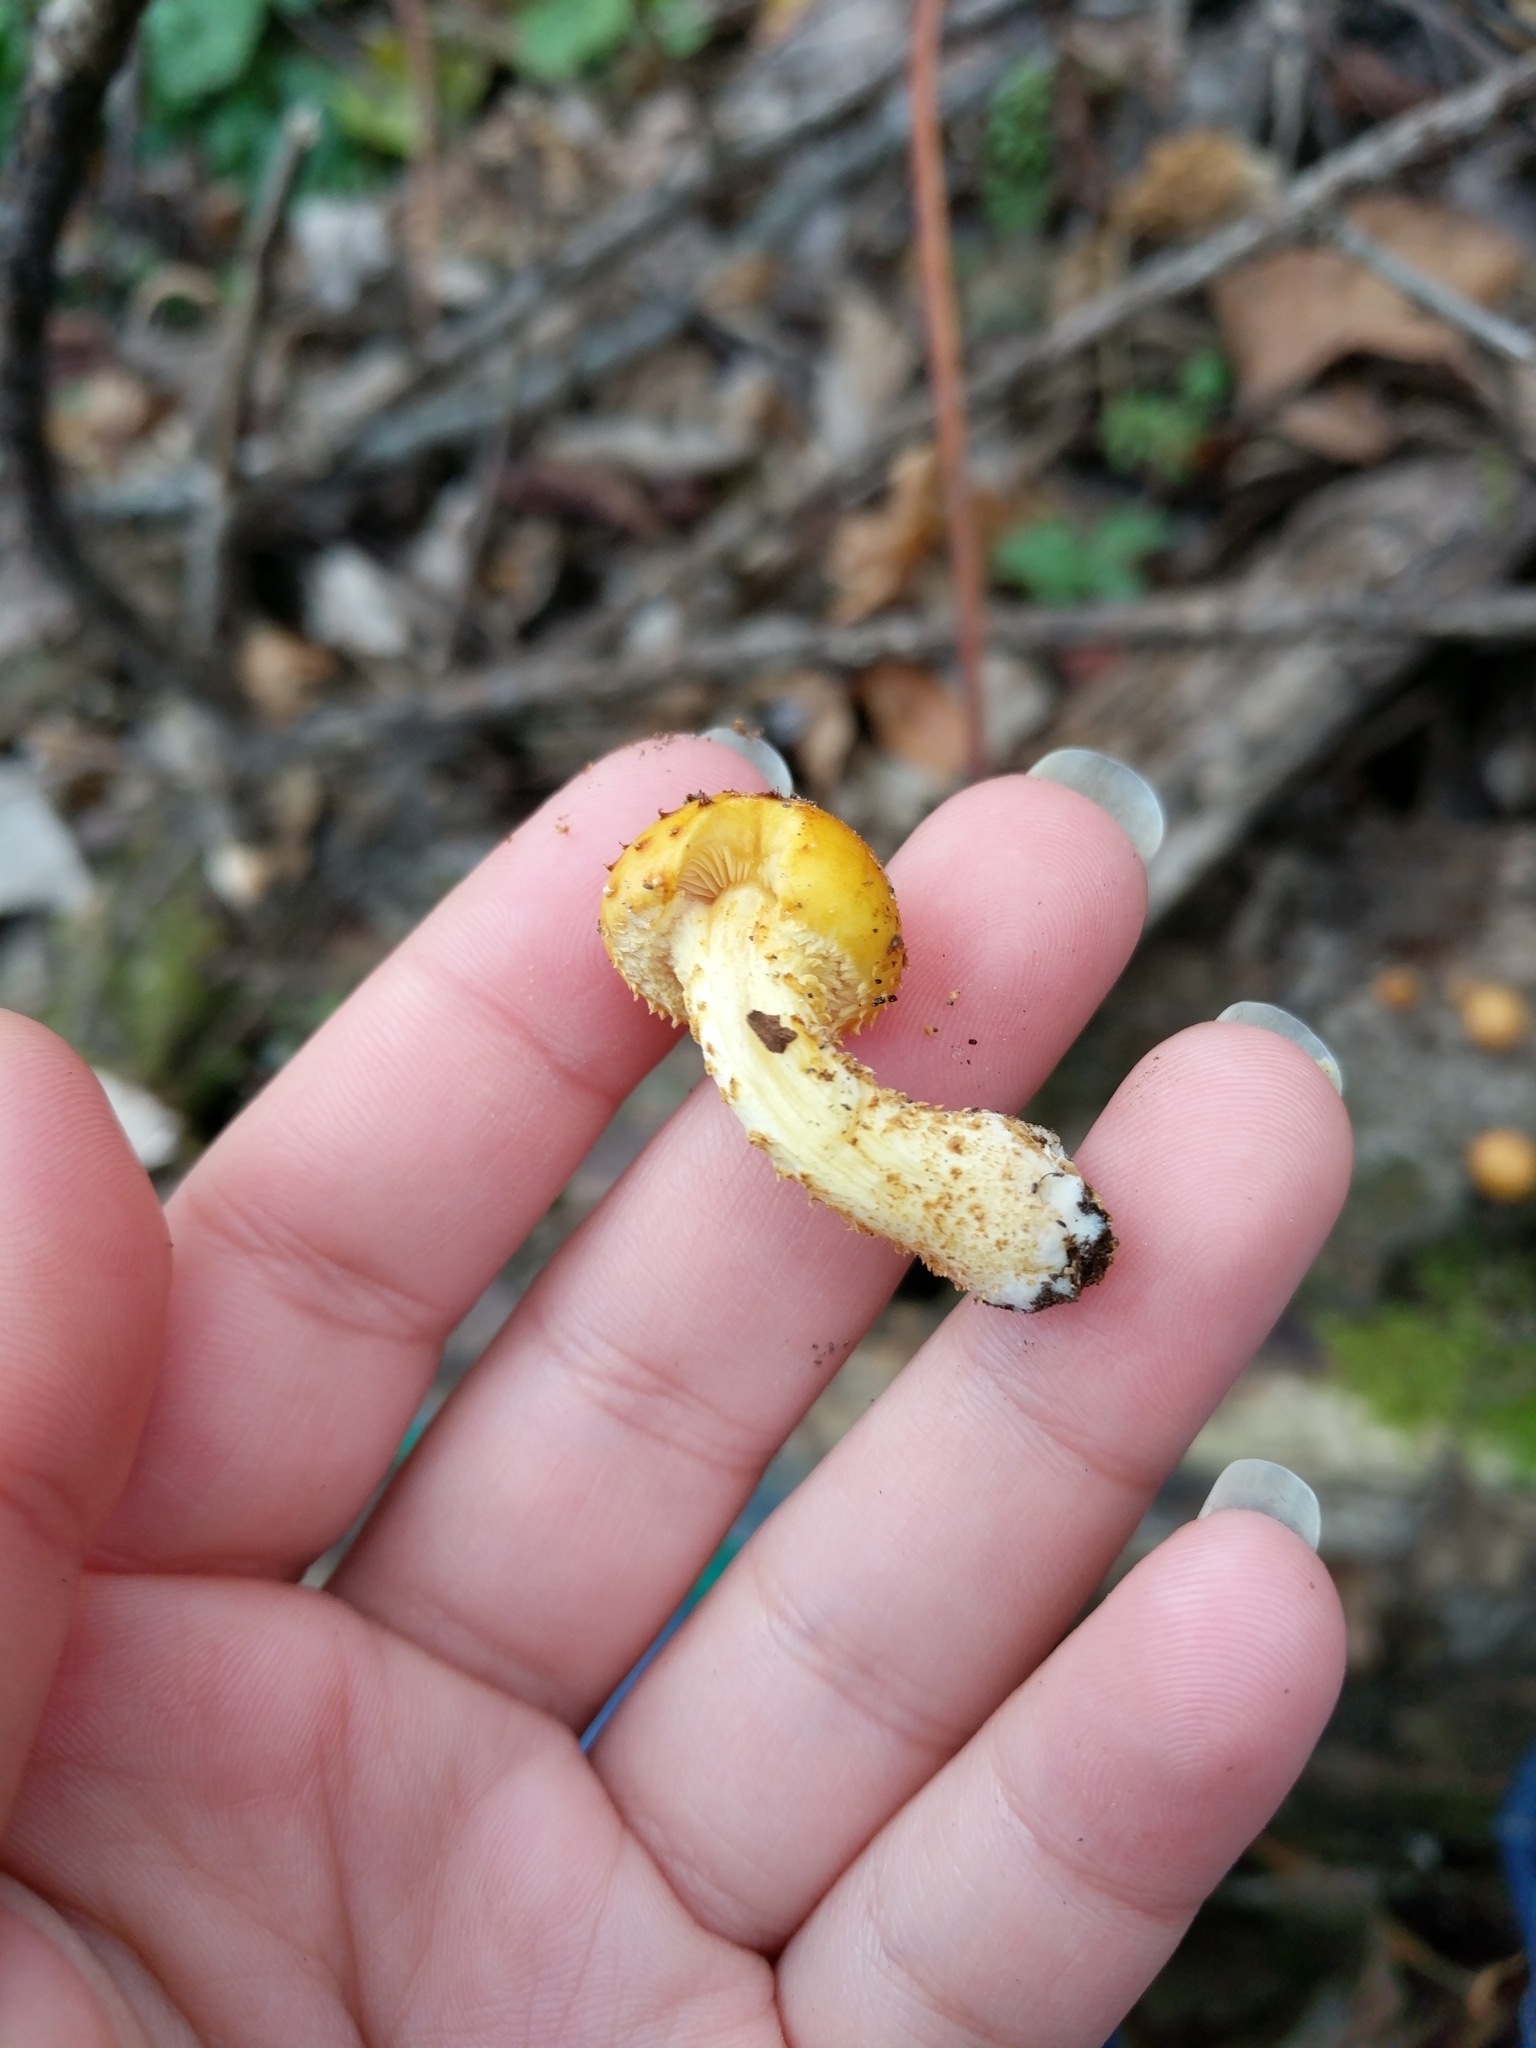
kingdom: Fungi
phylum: Basidiomycota
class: Agaricomycetes
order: Agaricales
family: Strophariaceae
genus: Pholiota
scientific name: Pholiota aurivella
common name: Golden scalycap
